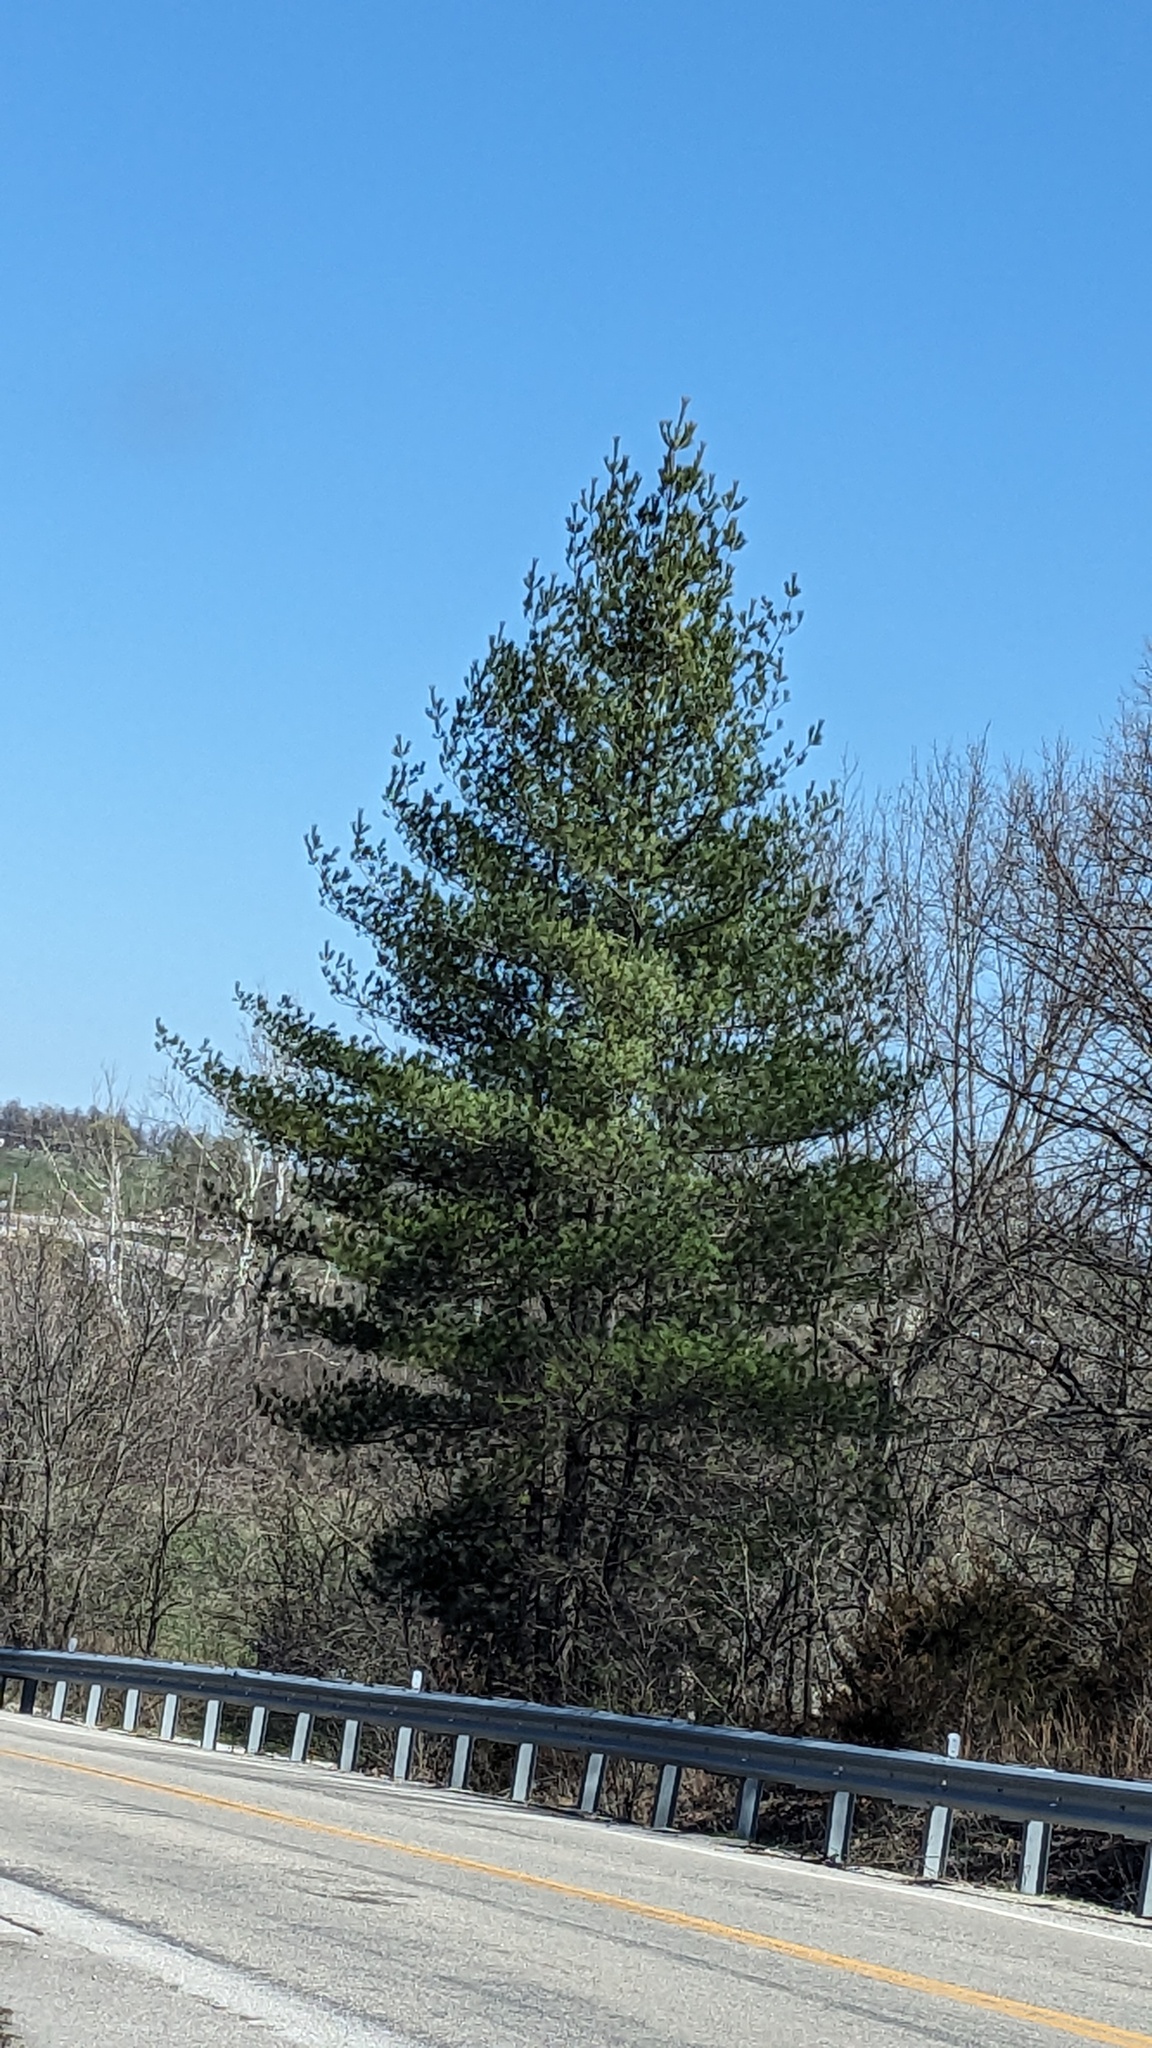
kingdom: Plantae
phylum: Tracheophyta
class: Pinopsida
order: Pinales
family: Pinaceae
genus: Pinus
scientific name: Pinus strobus
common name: Weymouth pine
